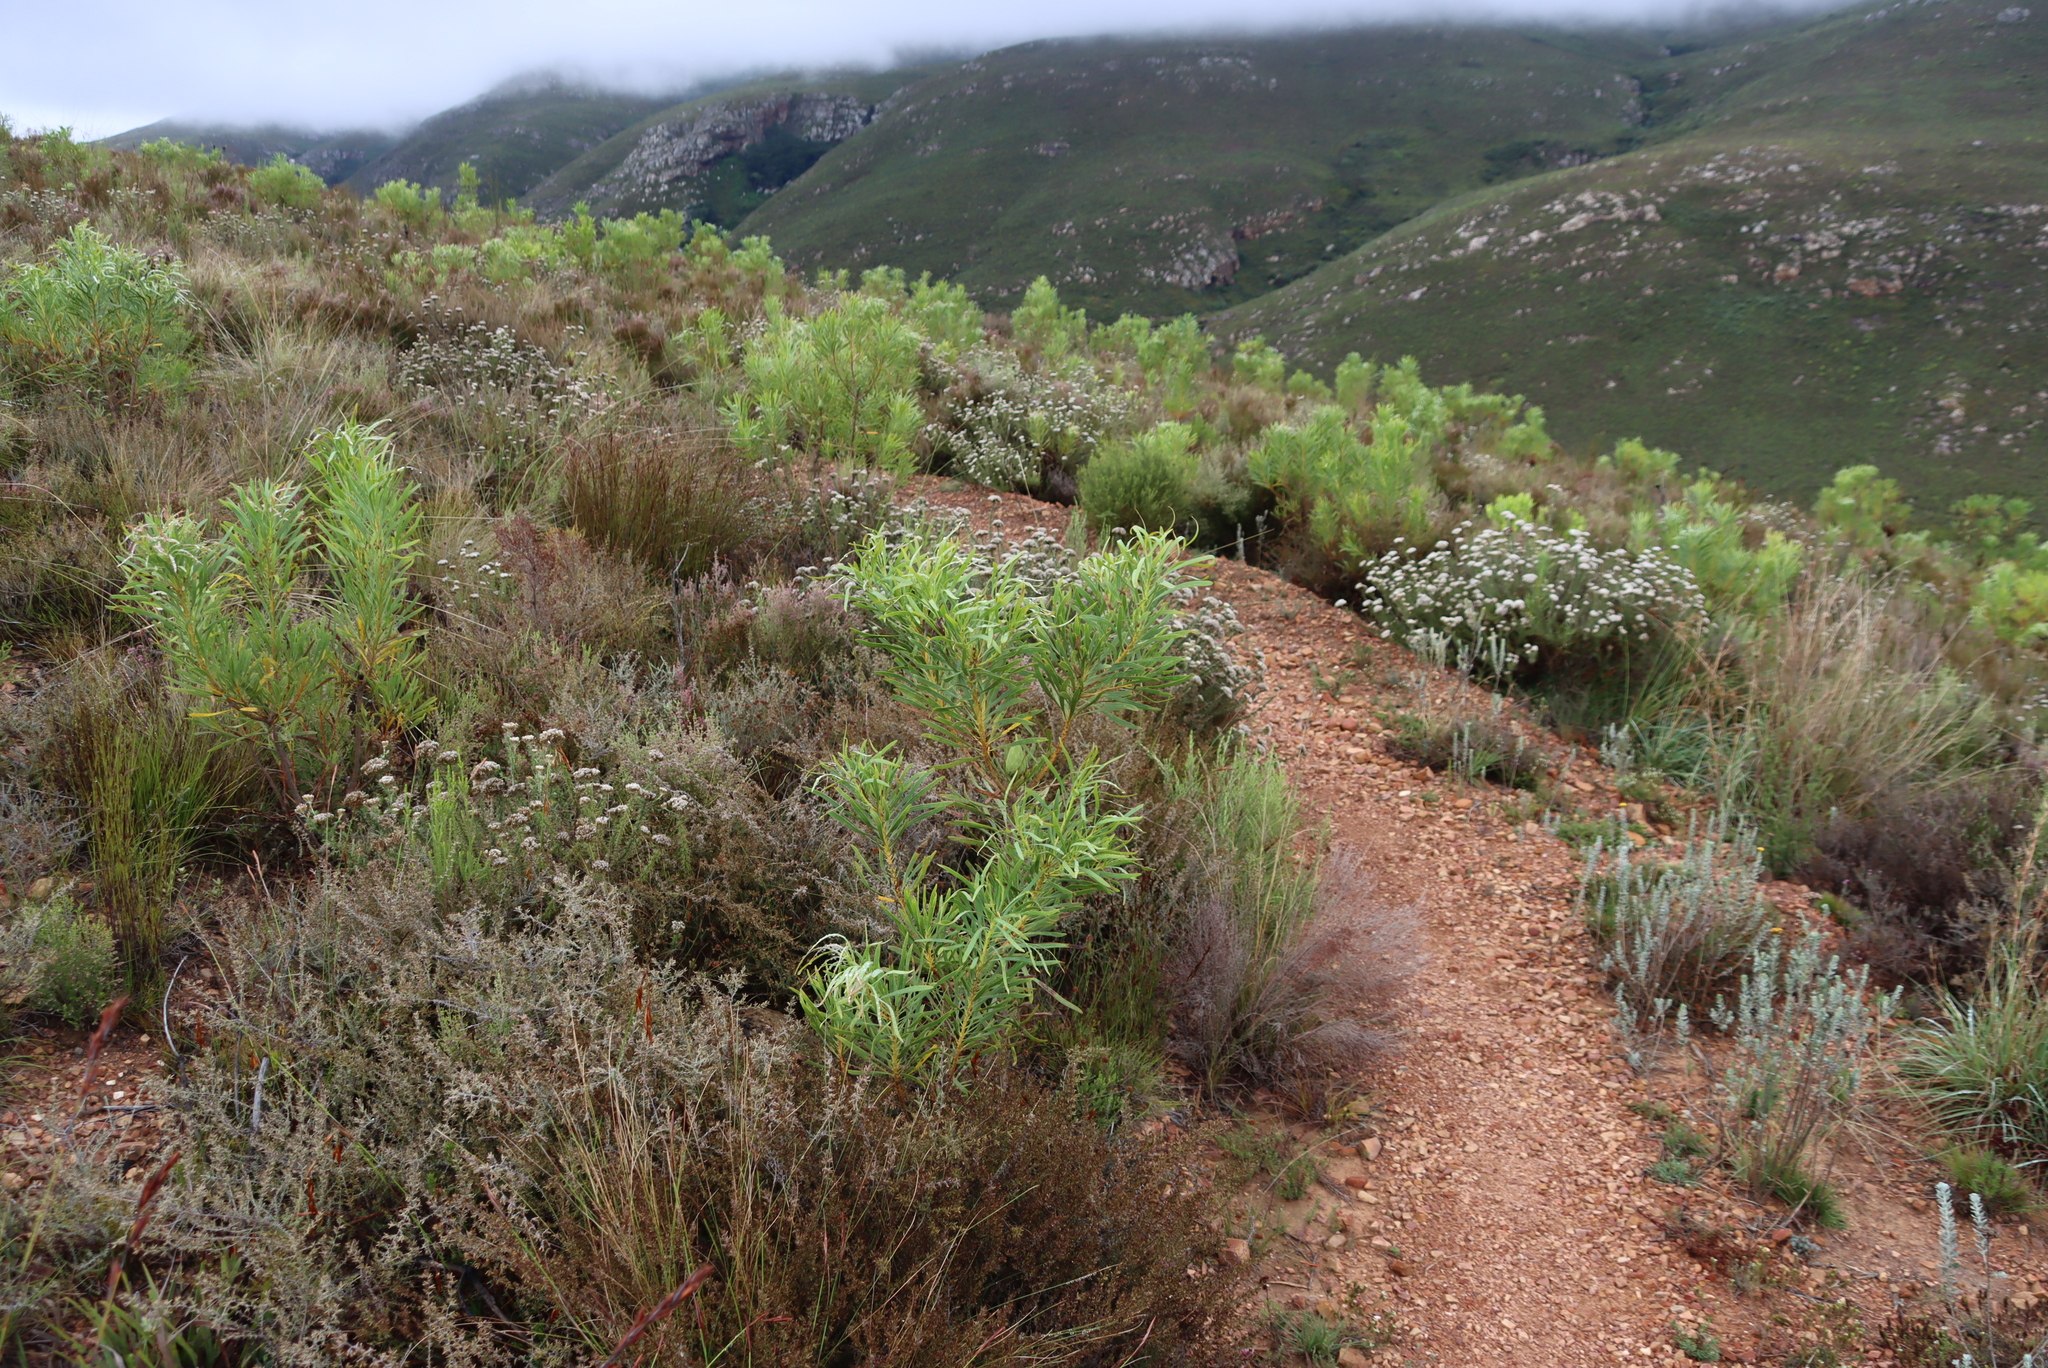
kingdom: Plantae
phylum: Tracheophyta
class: Magnoliopsida
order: Proteales
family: Proteaceae
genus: Protea
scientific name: Protea repens
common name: Sugarbush
